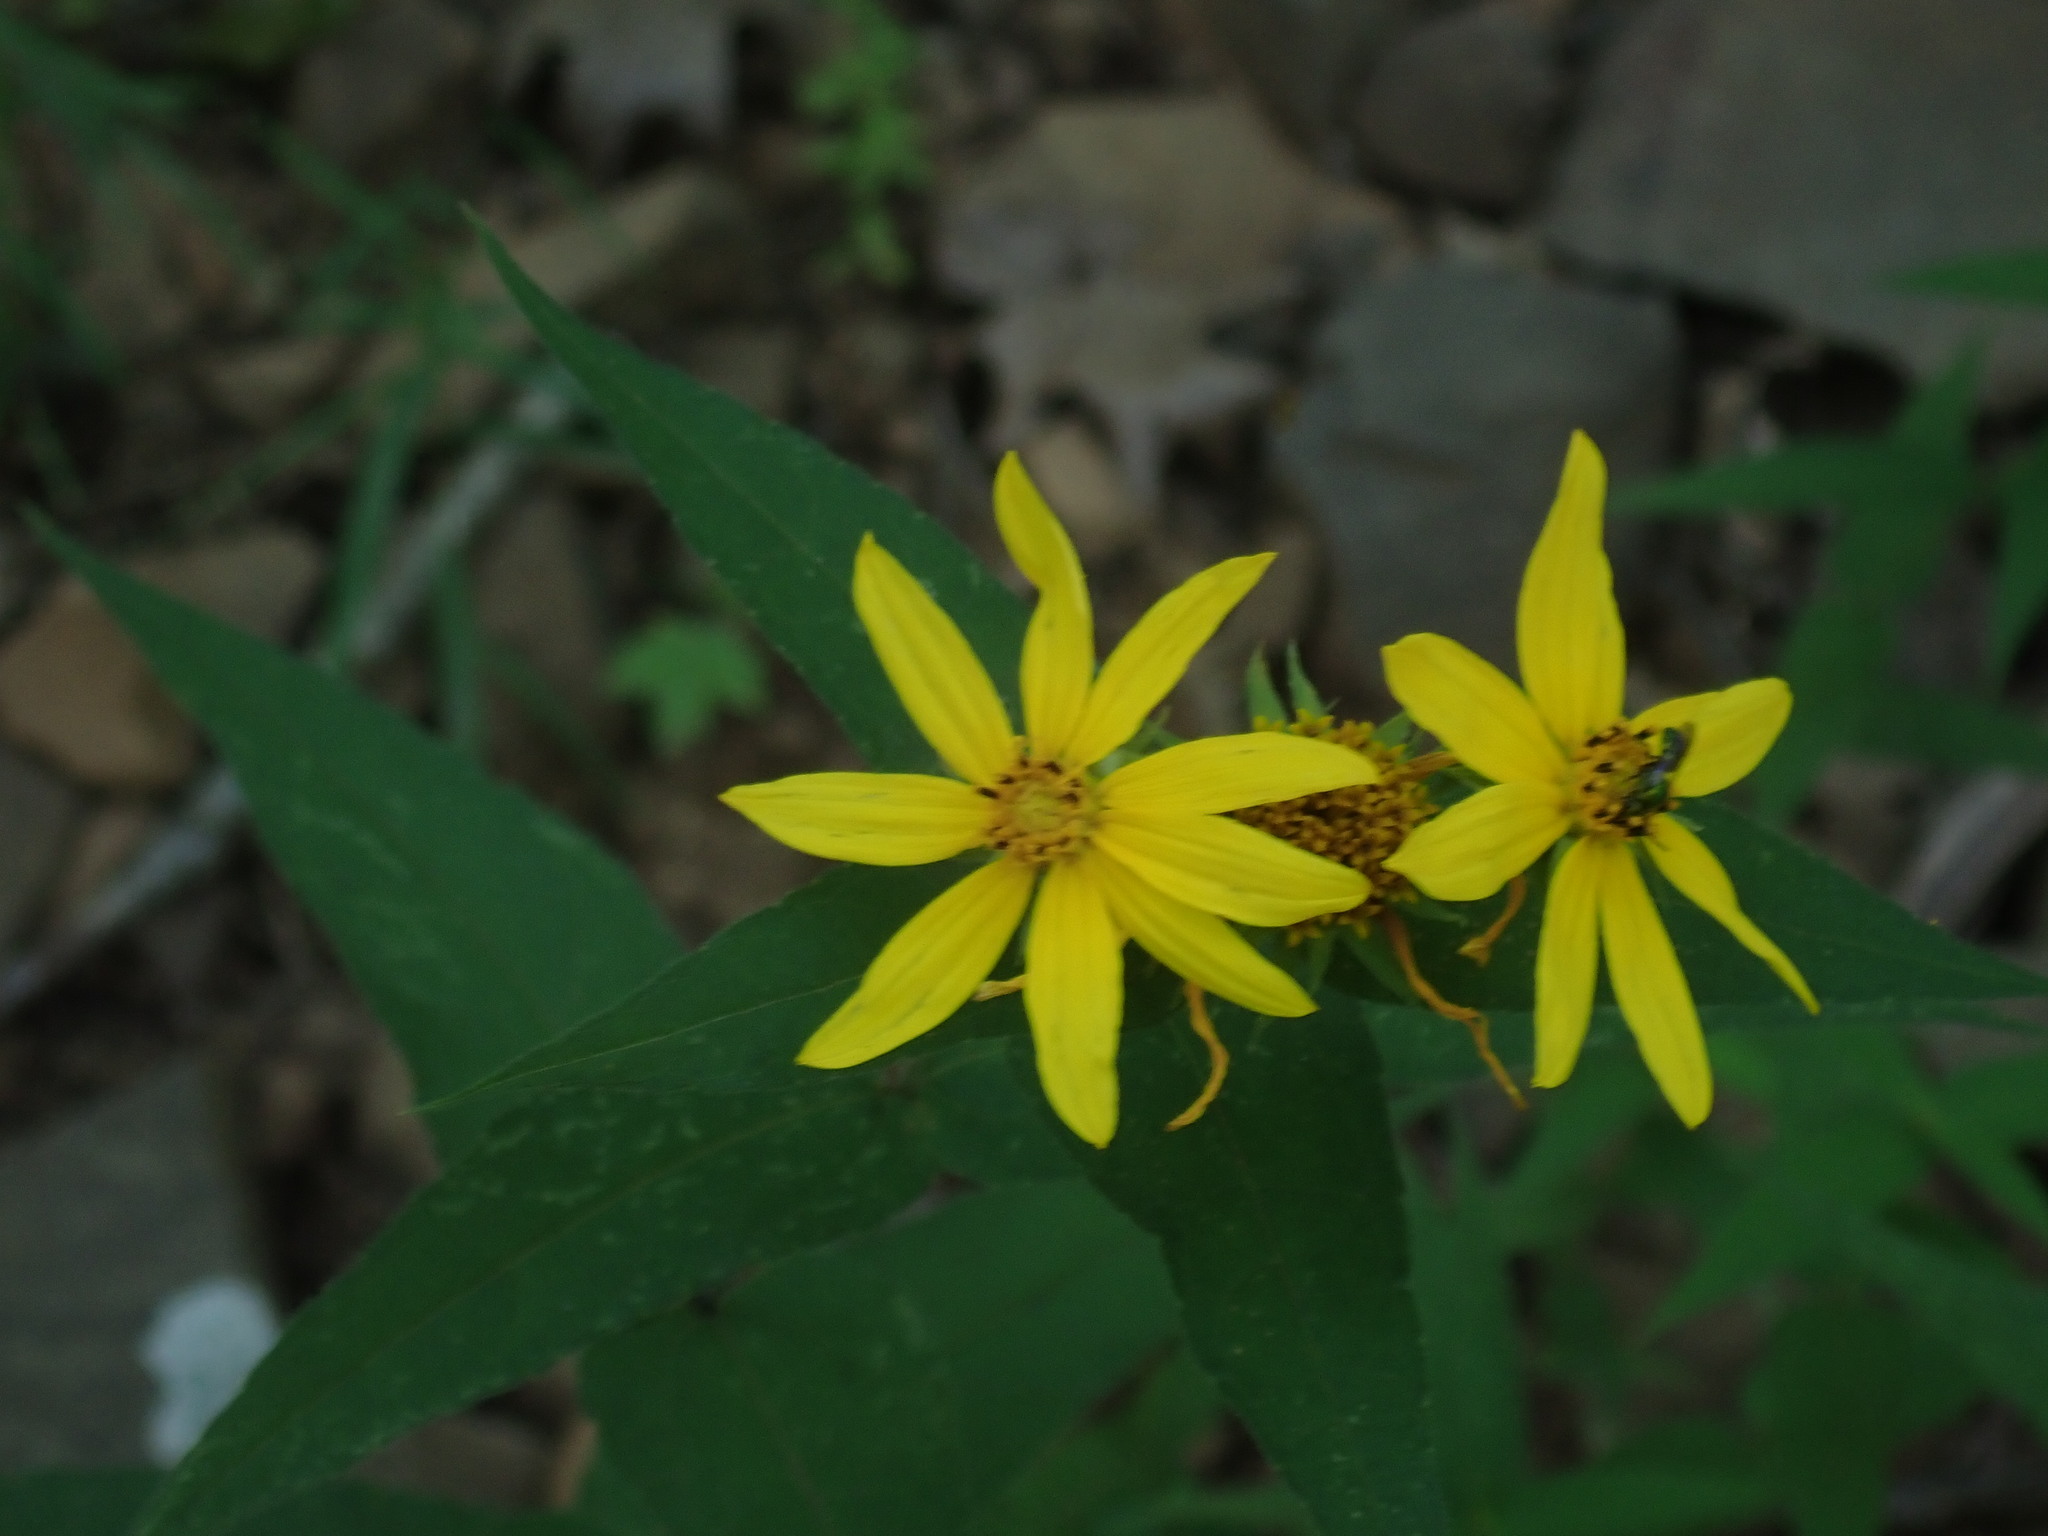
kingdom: Plantae
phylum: Tracheophyta
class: Magnoliopsida
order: Asterales
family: Asteraceae
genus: Helianthus
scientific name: Helianthus divaricatus
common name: Divergent sunflower
